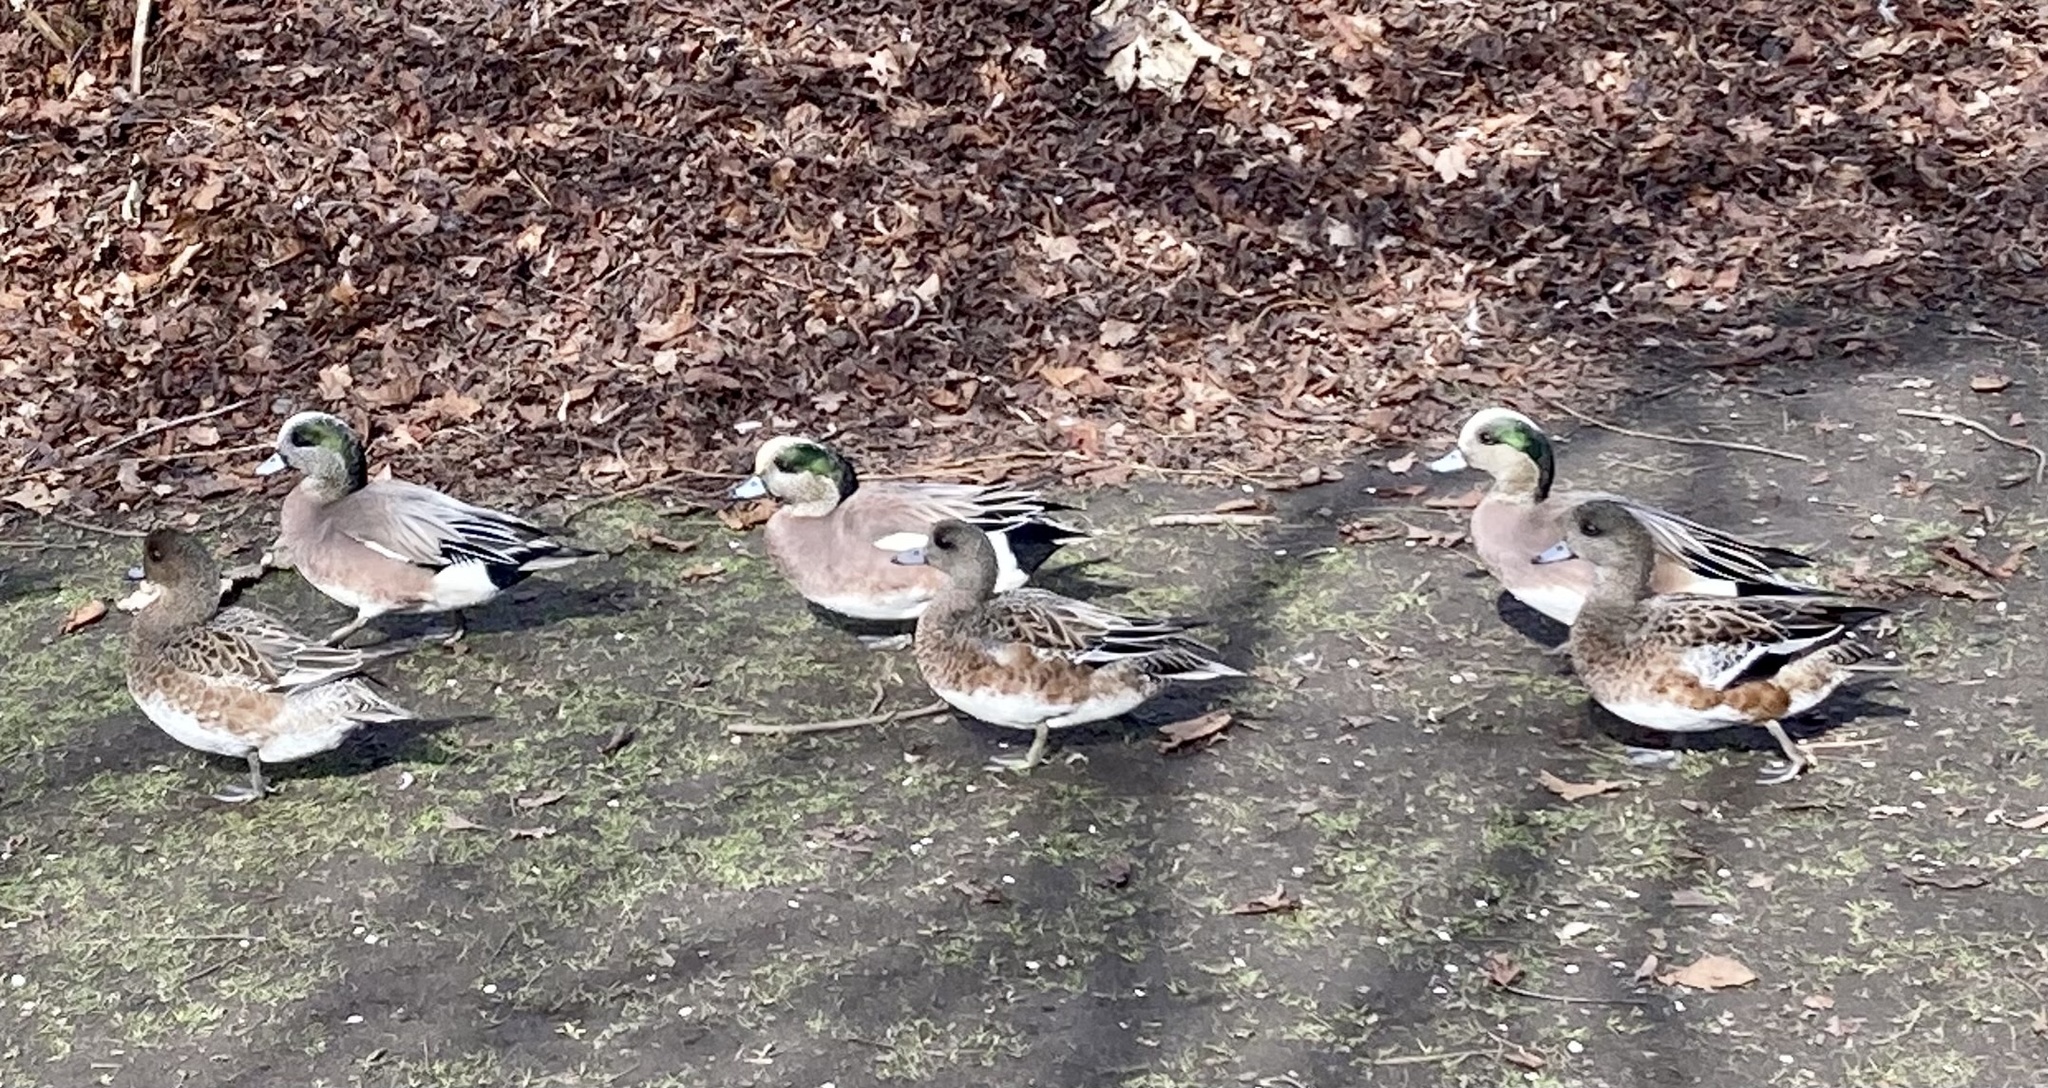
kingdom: Animalia
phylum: Chordata
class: Aves
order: Anseriformes
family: Anatidae
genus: Mareca
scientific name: Mareca americana
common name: American wigeon
